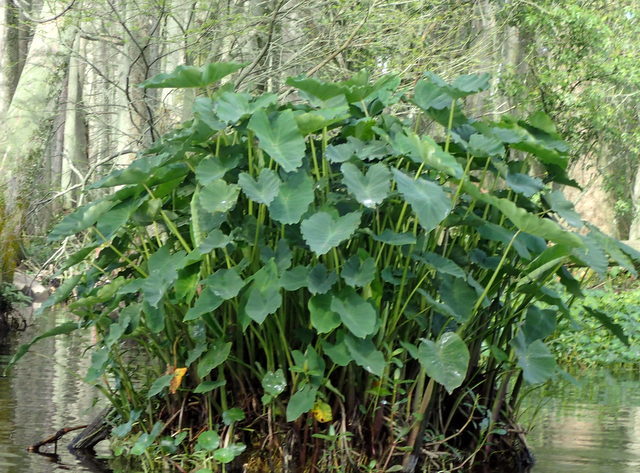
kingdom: Plantae
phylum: Tracheophyta
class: Liliopsida
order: Alismatales
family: Araceae
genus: Colocasia
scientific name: Colocasia esculenta
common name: Taro
